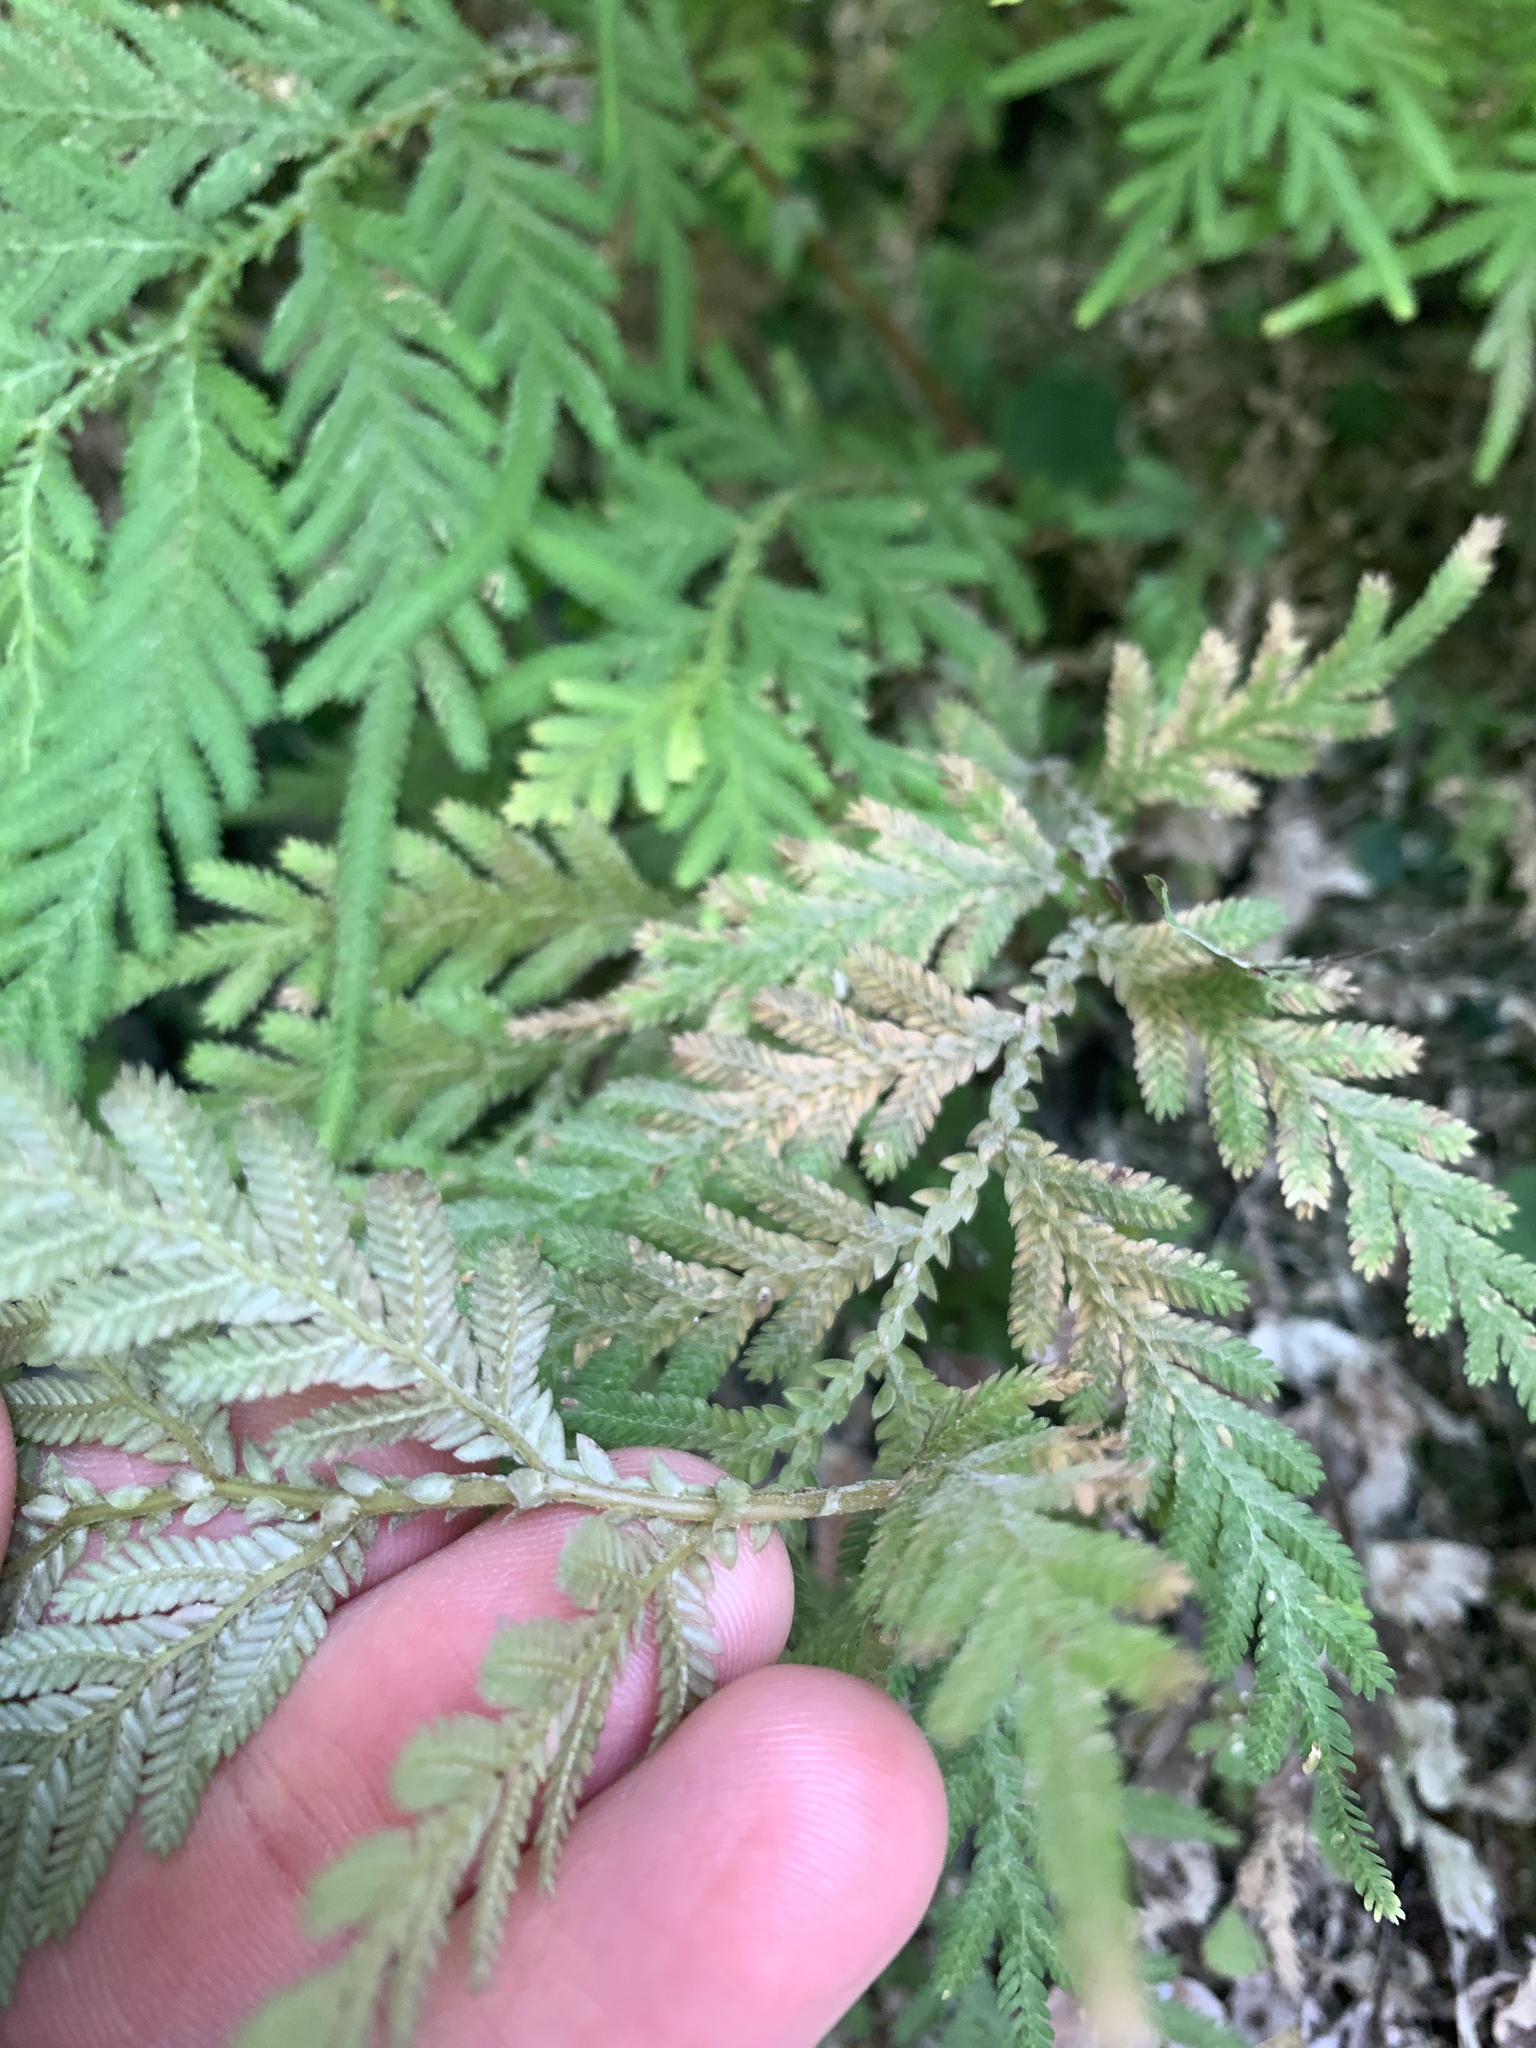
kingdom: Plantae
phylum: Tracheophyta
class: Lycopodiopsida
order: Selaginellales
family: Selaginellaceae
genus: Selaginella
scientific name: Selaginella delicatula
